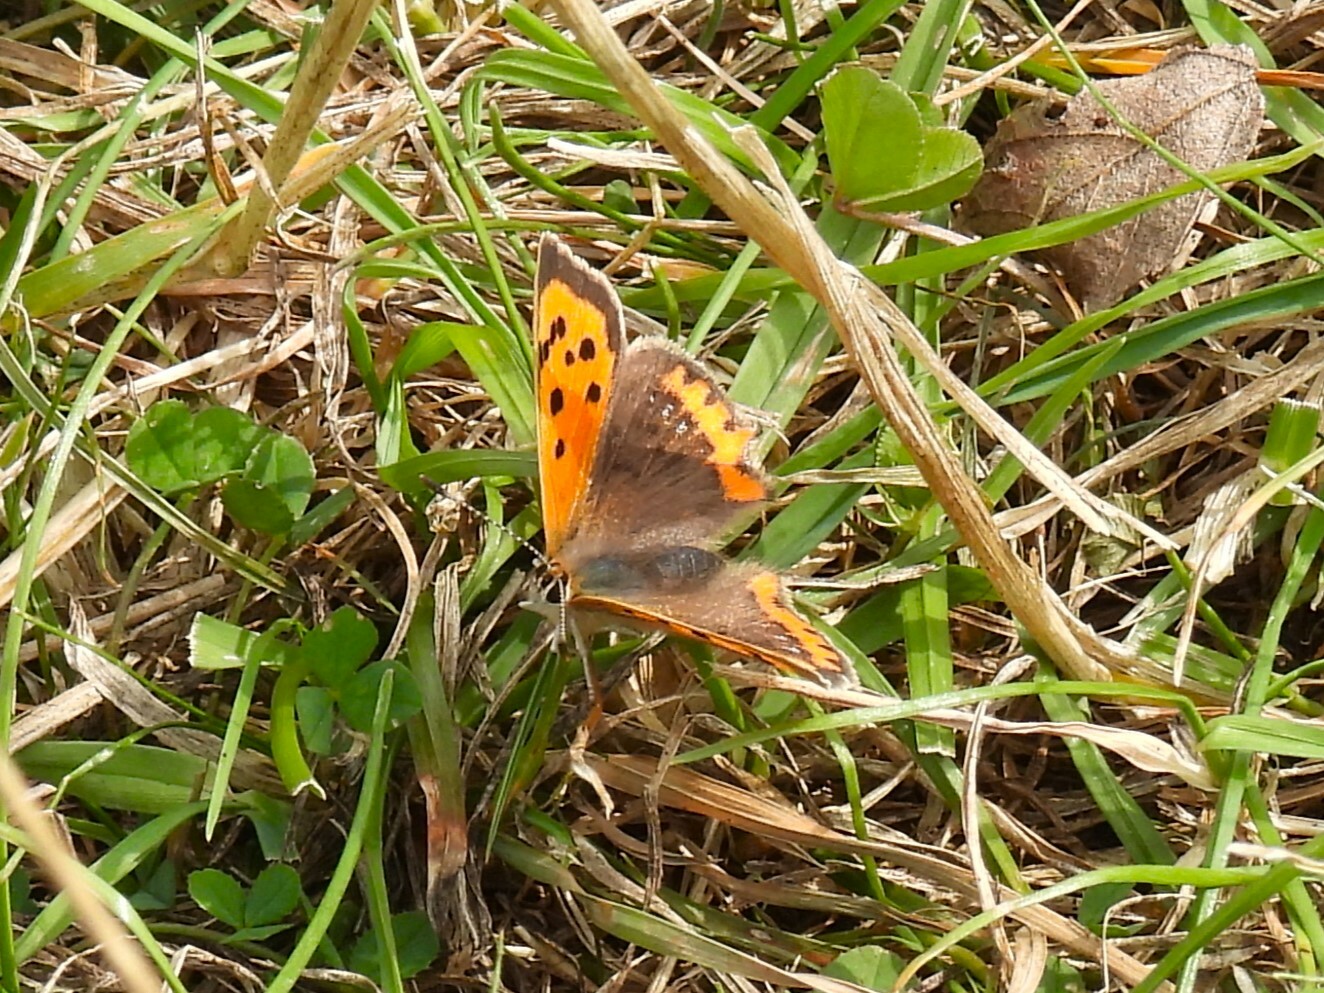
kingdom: Animalia
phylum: Arthropoda
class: Insecta
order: Lepidoptera
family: Lycaenidae
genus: Lycaena
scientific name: Lycaena phlaeas
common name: Small copper
